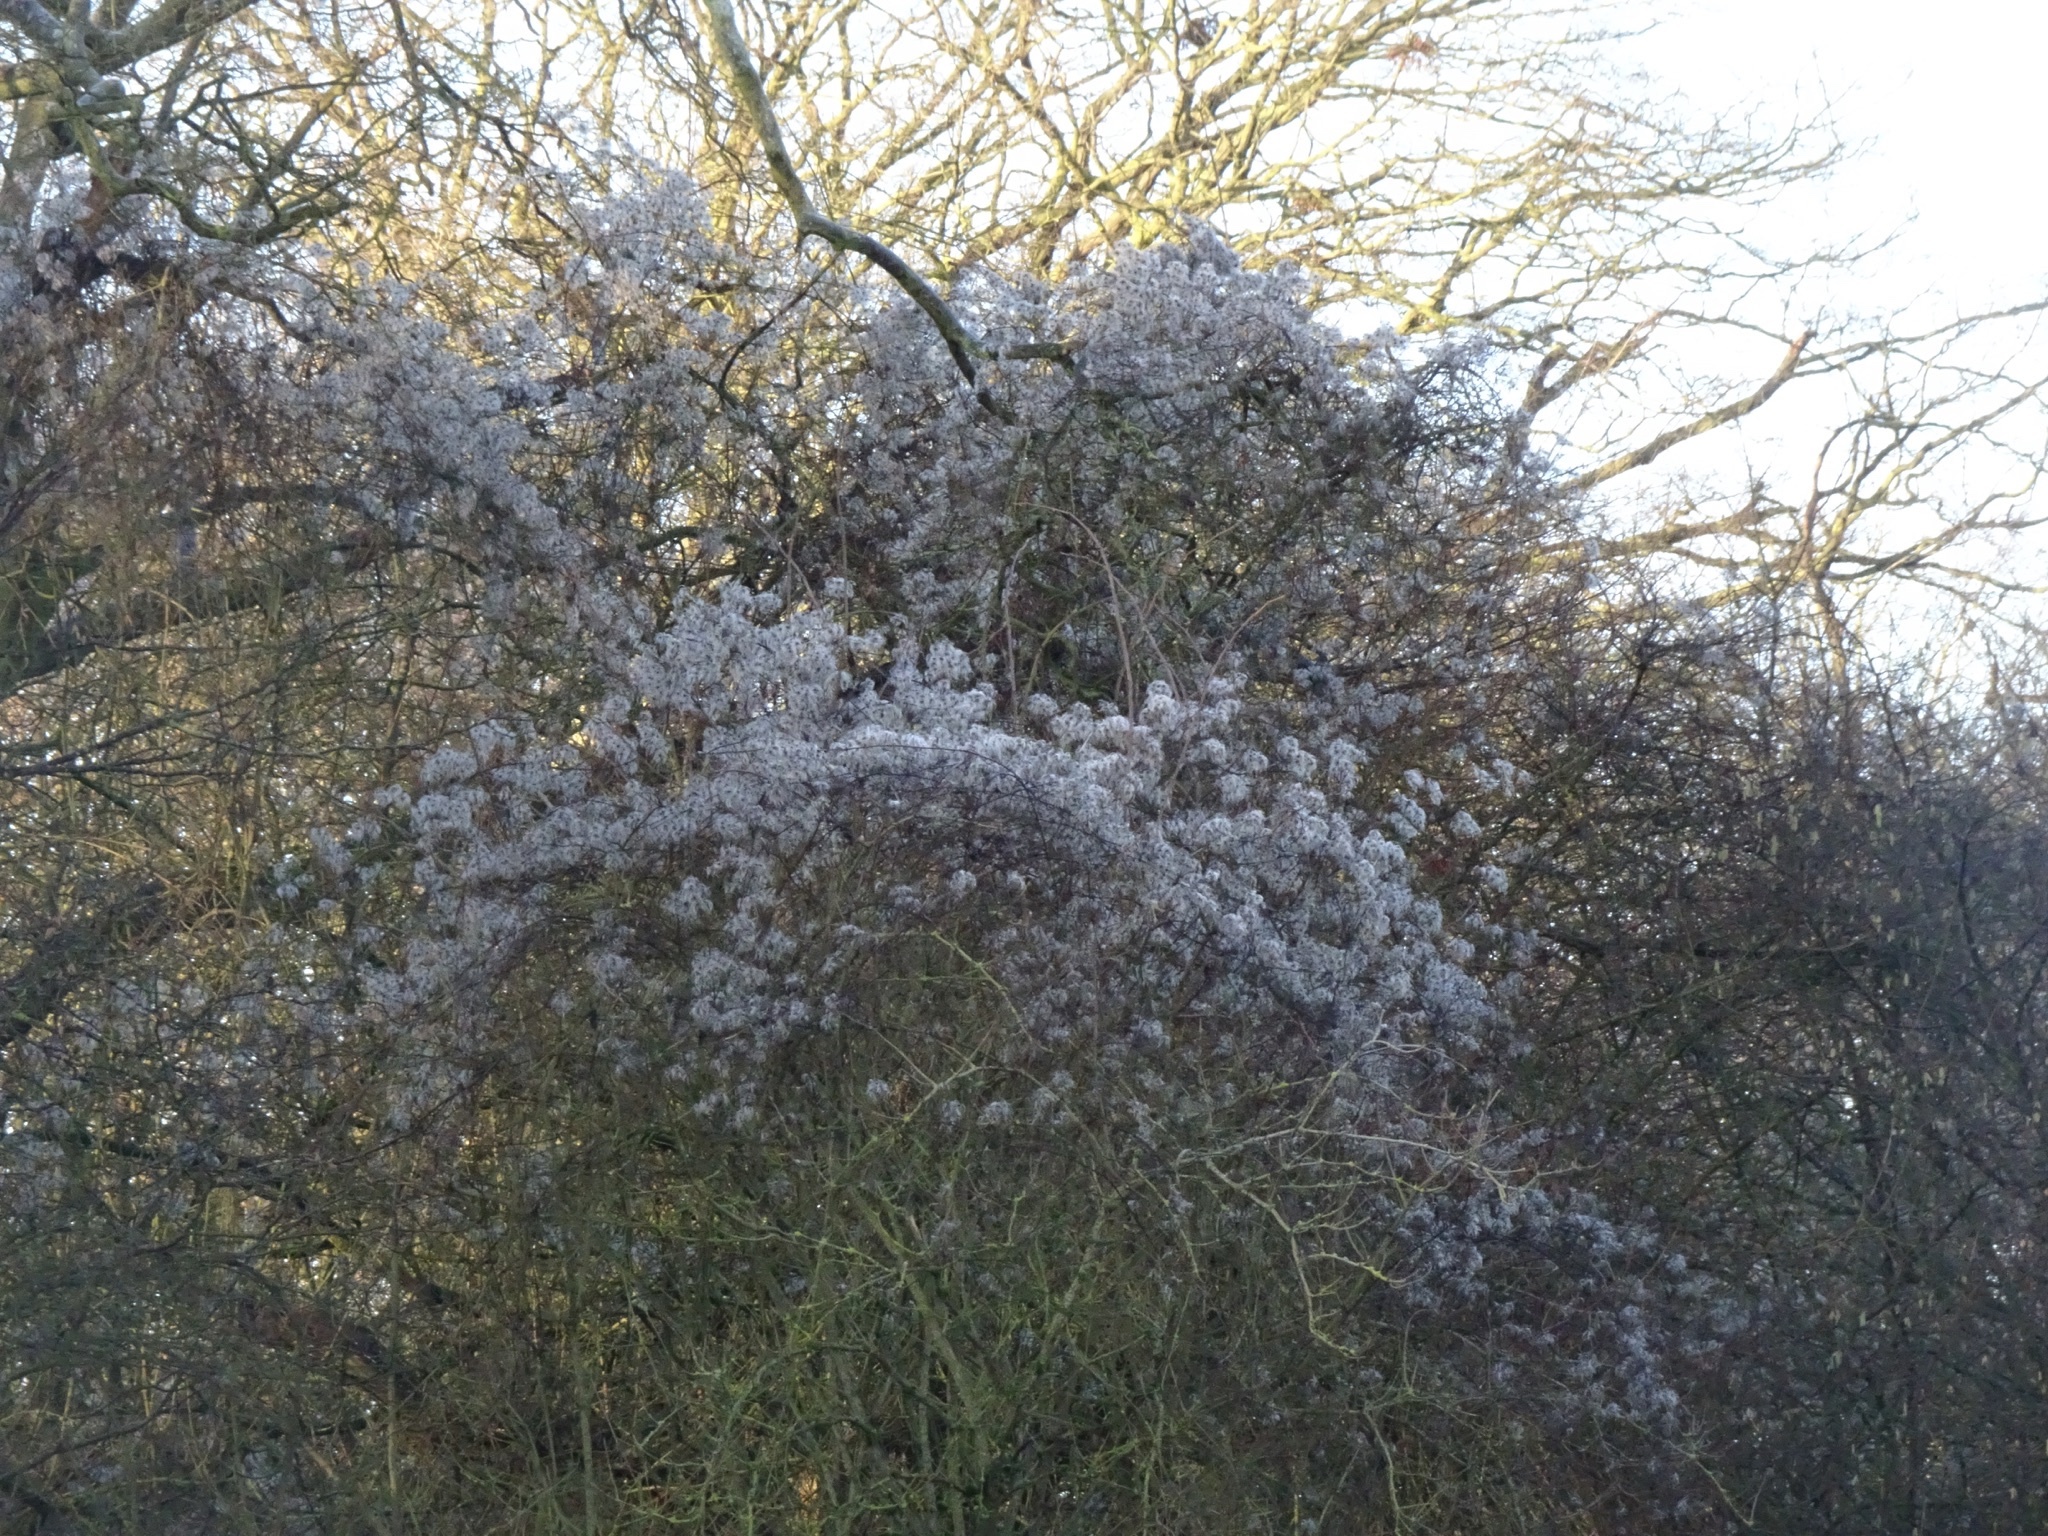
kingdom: Plantae
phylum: Tracheophyta
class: Magnoliopsida
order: Ranunculales
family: Ranunculaceae
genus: Clematis
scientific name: Clematis vitalba
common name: Evergreen clematis
